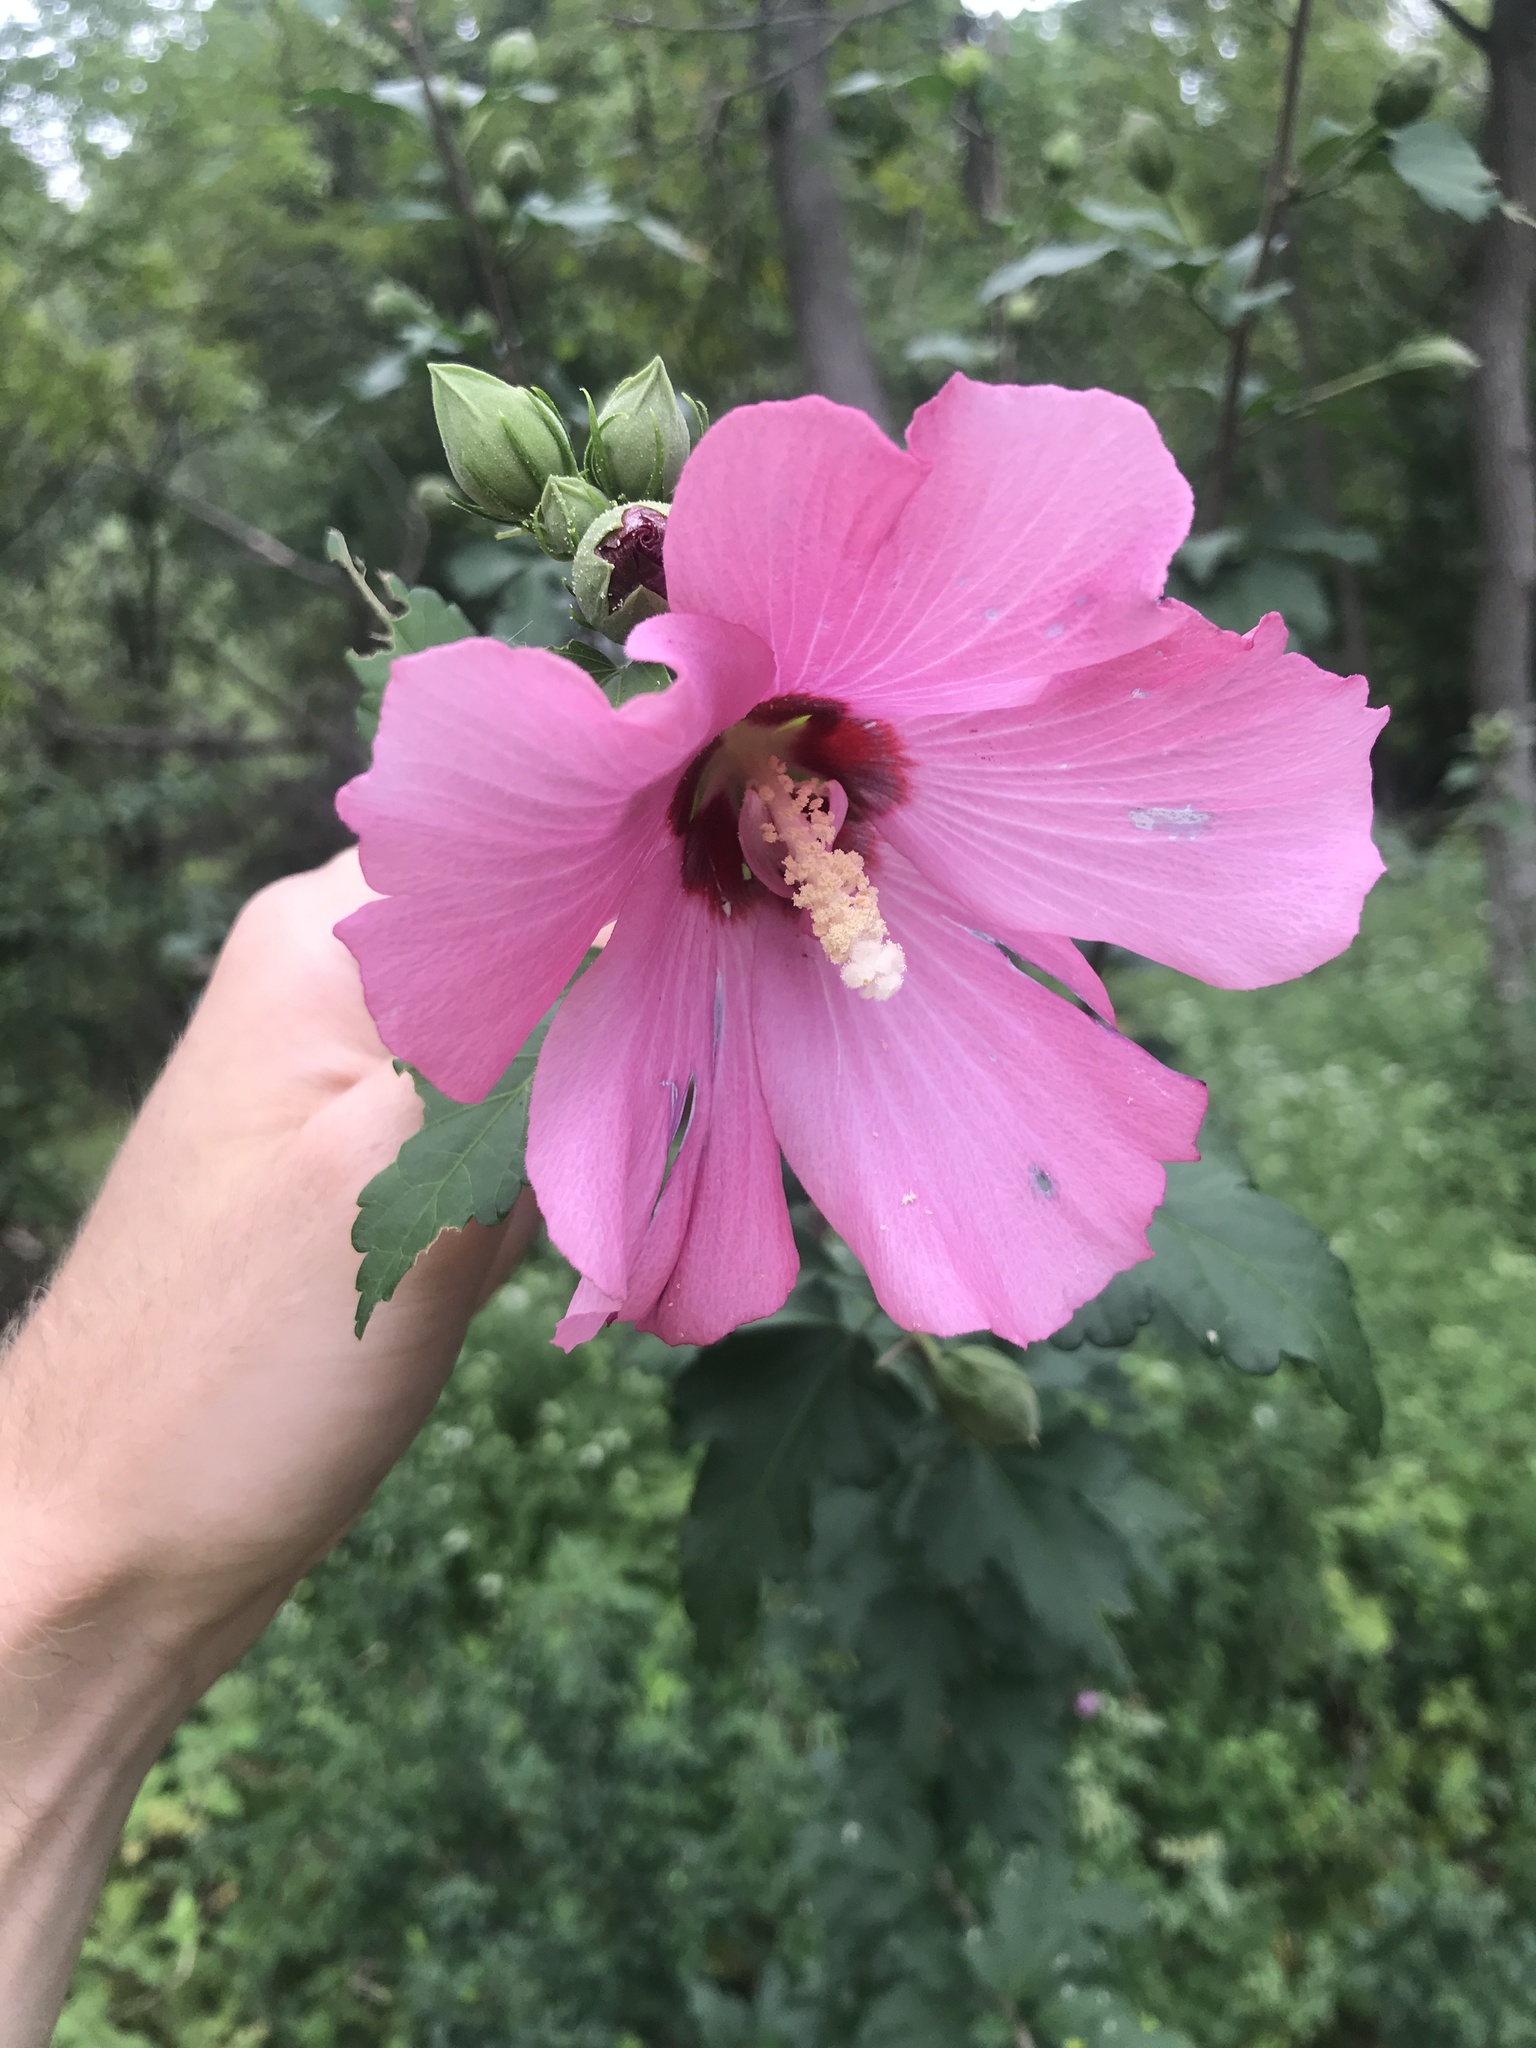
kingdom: Plantae
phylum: Tracheophyta
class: Magnoliopsida
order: Malvales
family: Malvaceae
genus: Hibiscus
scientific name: Hibiscus syriacus
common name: Syrian ketmia
